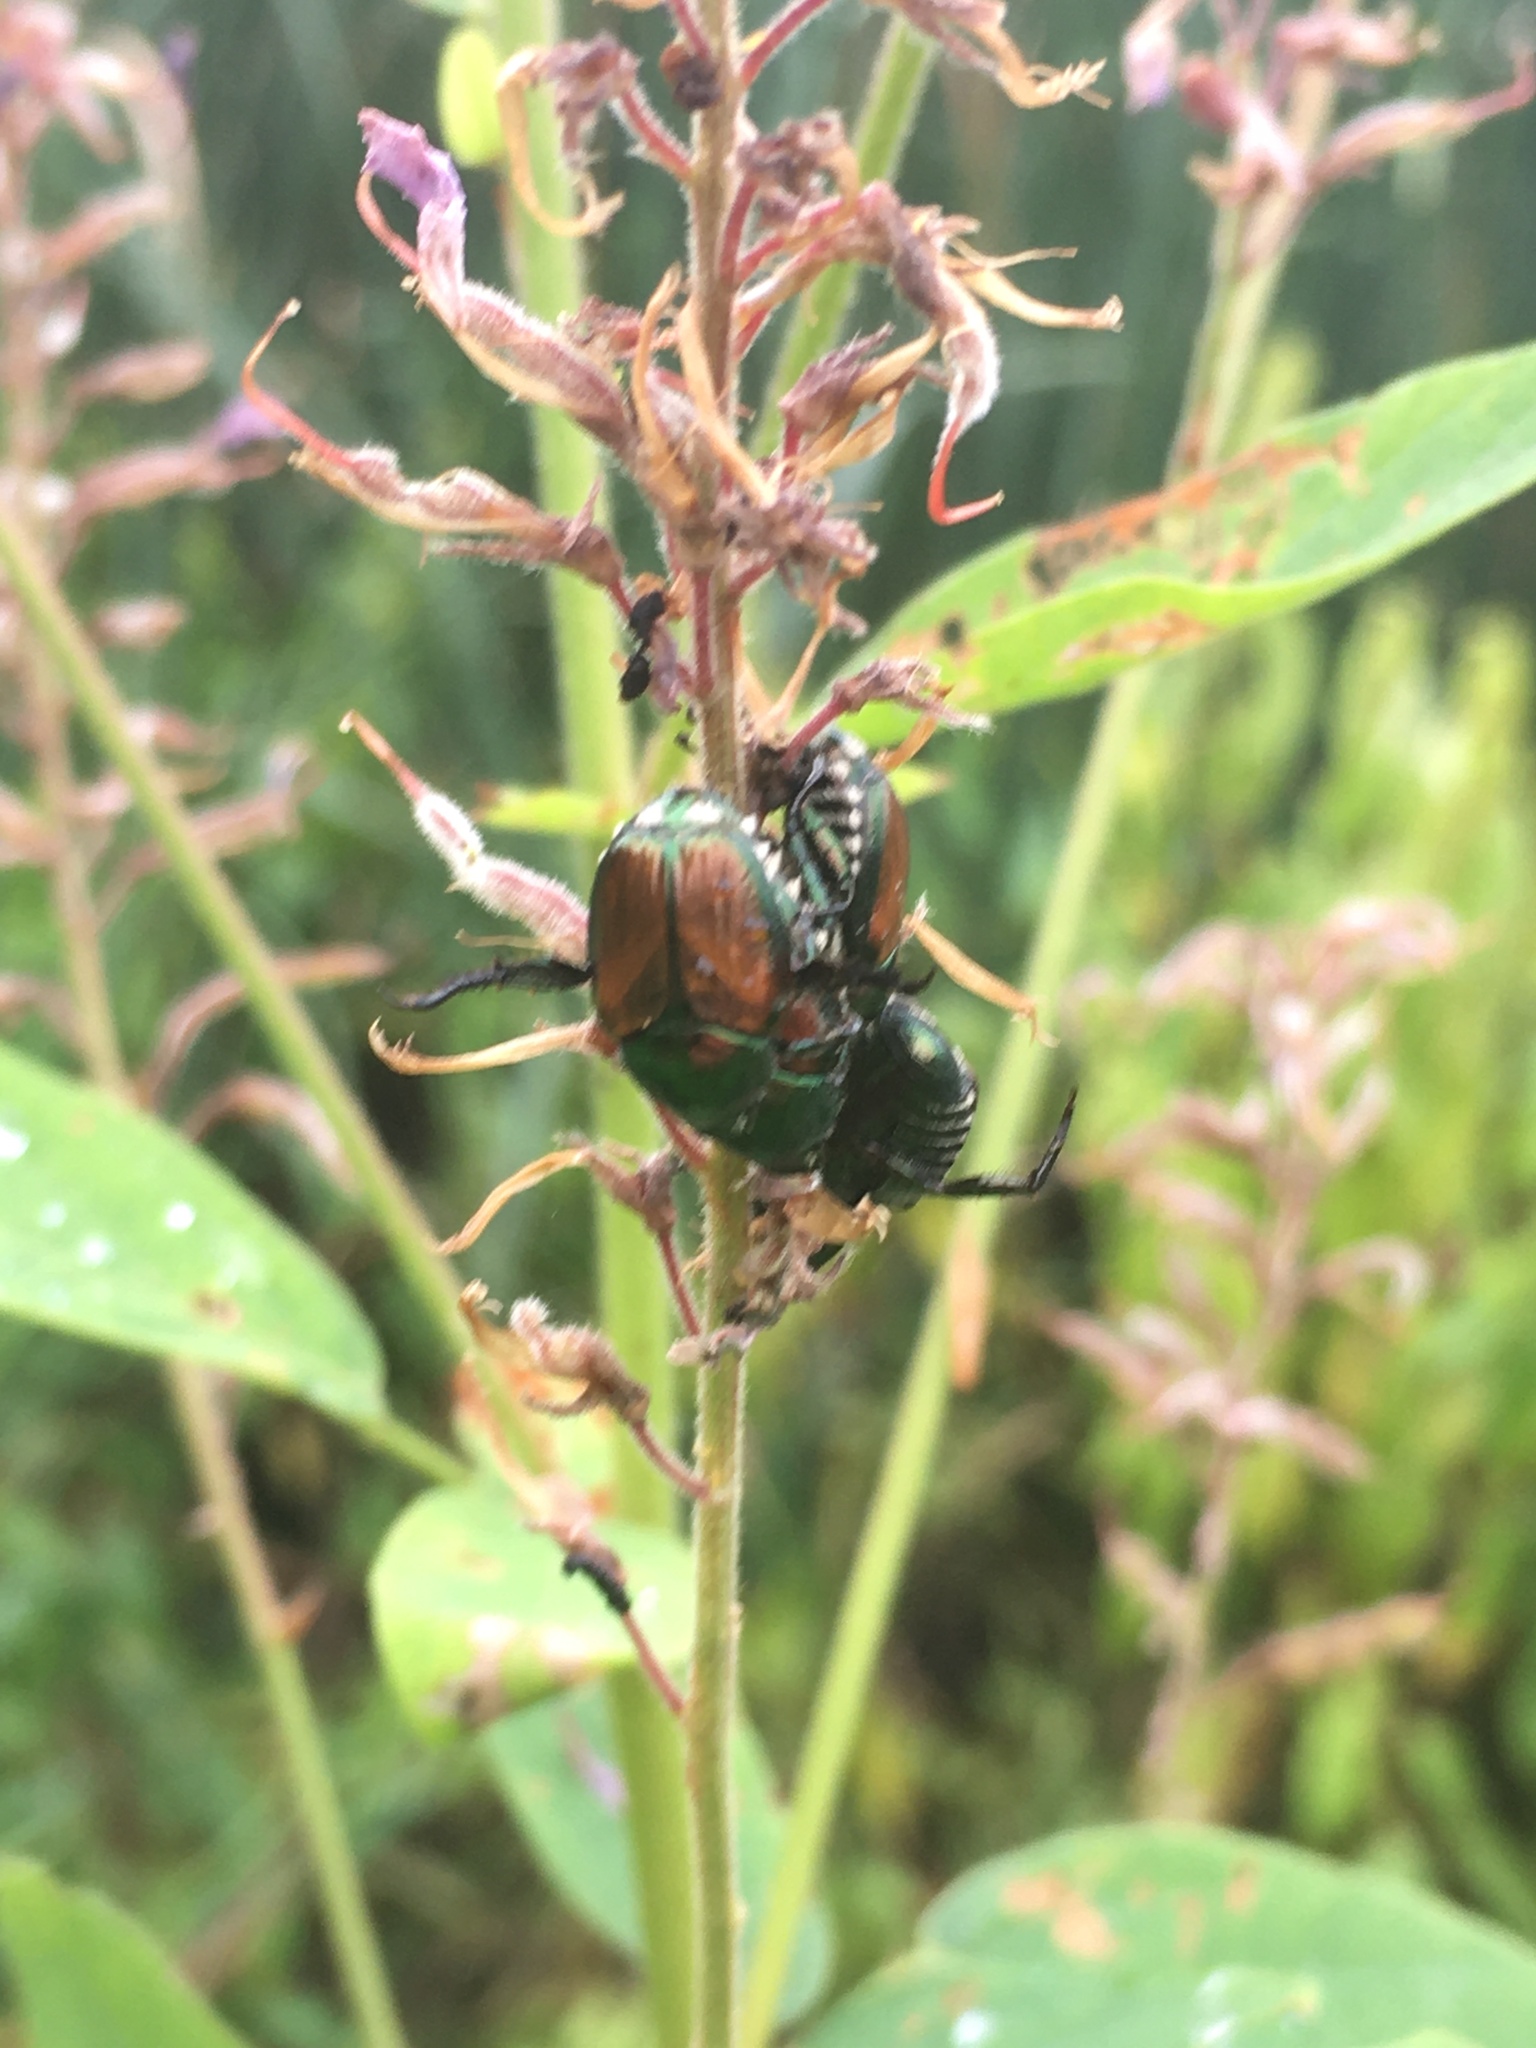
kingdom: Animalia
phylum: Arthropoda
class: Insecta
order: Coleoptera
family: Scarabaeidae
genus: Popillia
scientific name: Popillia japonica
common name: Japanese beetle
